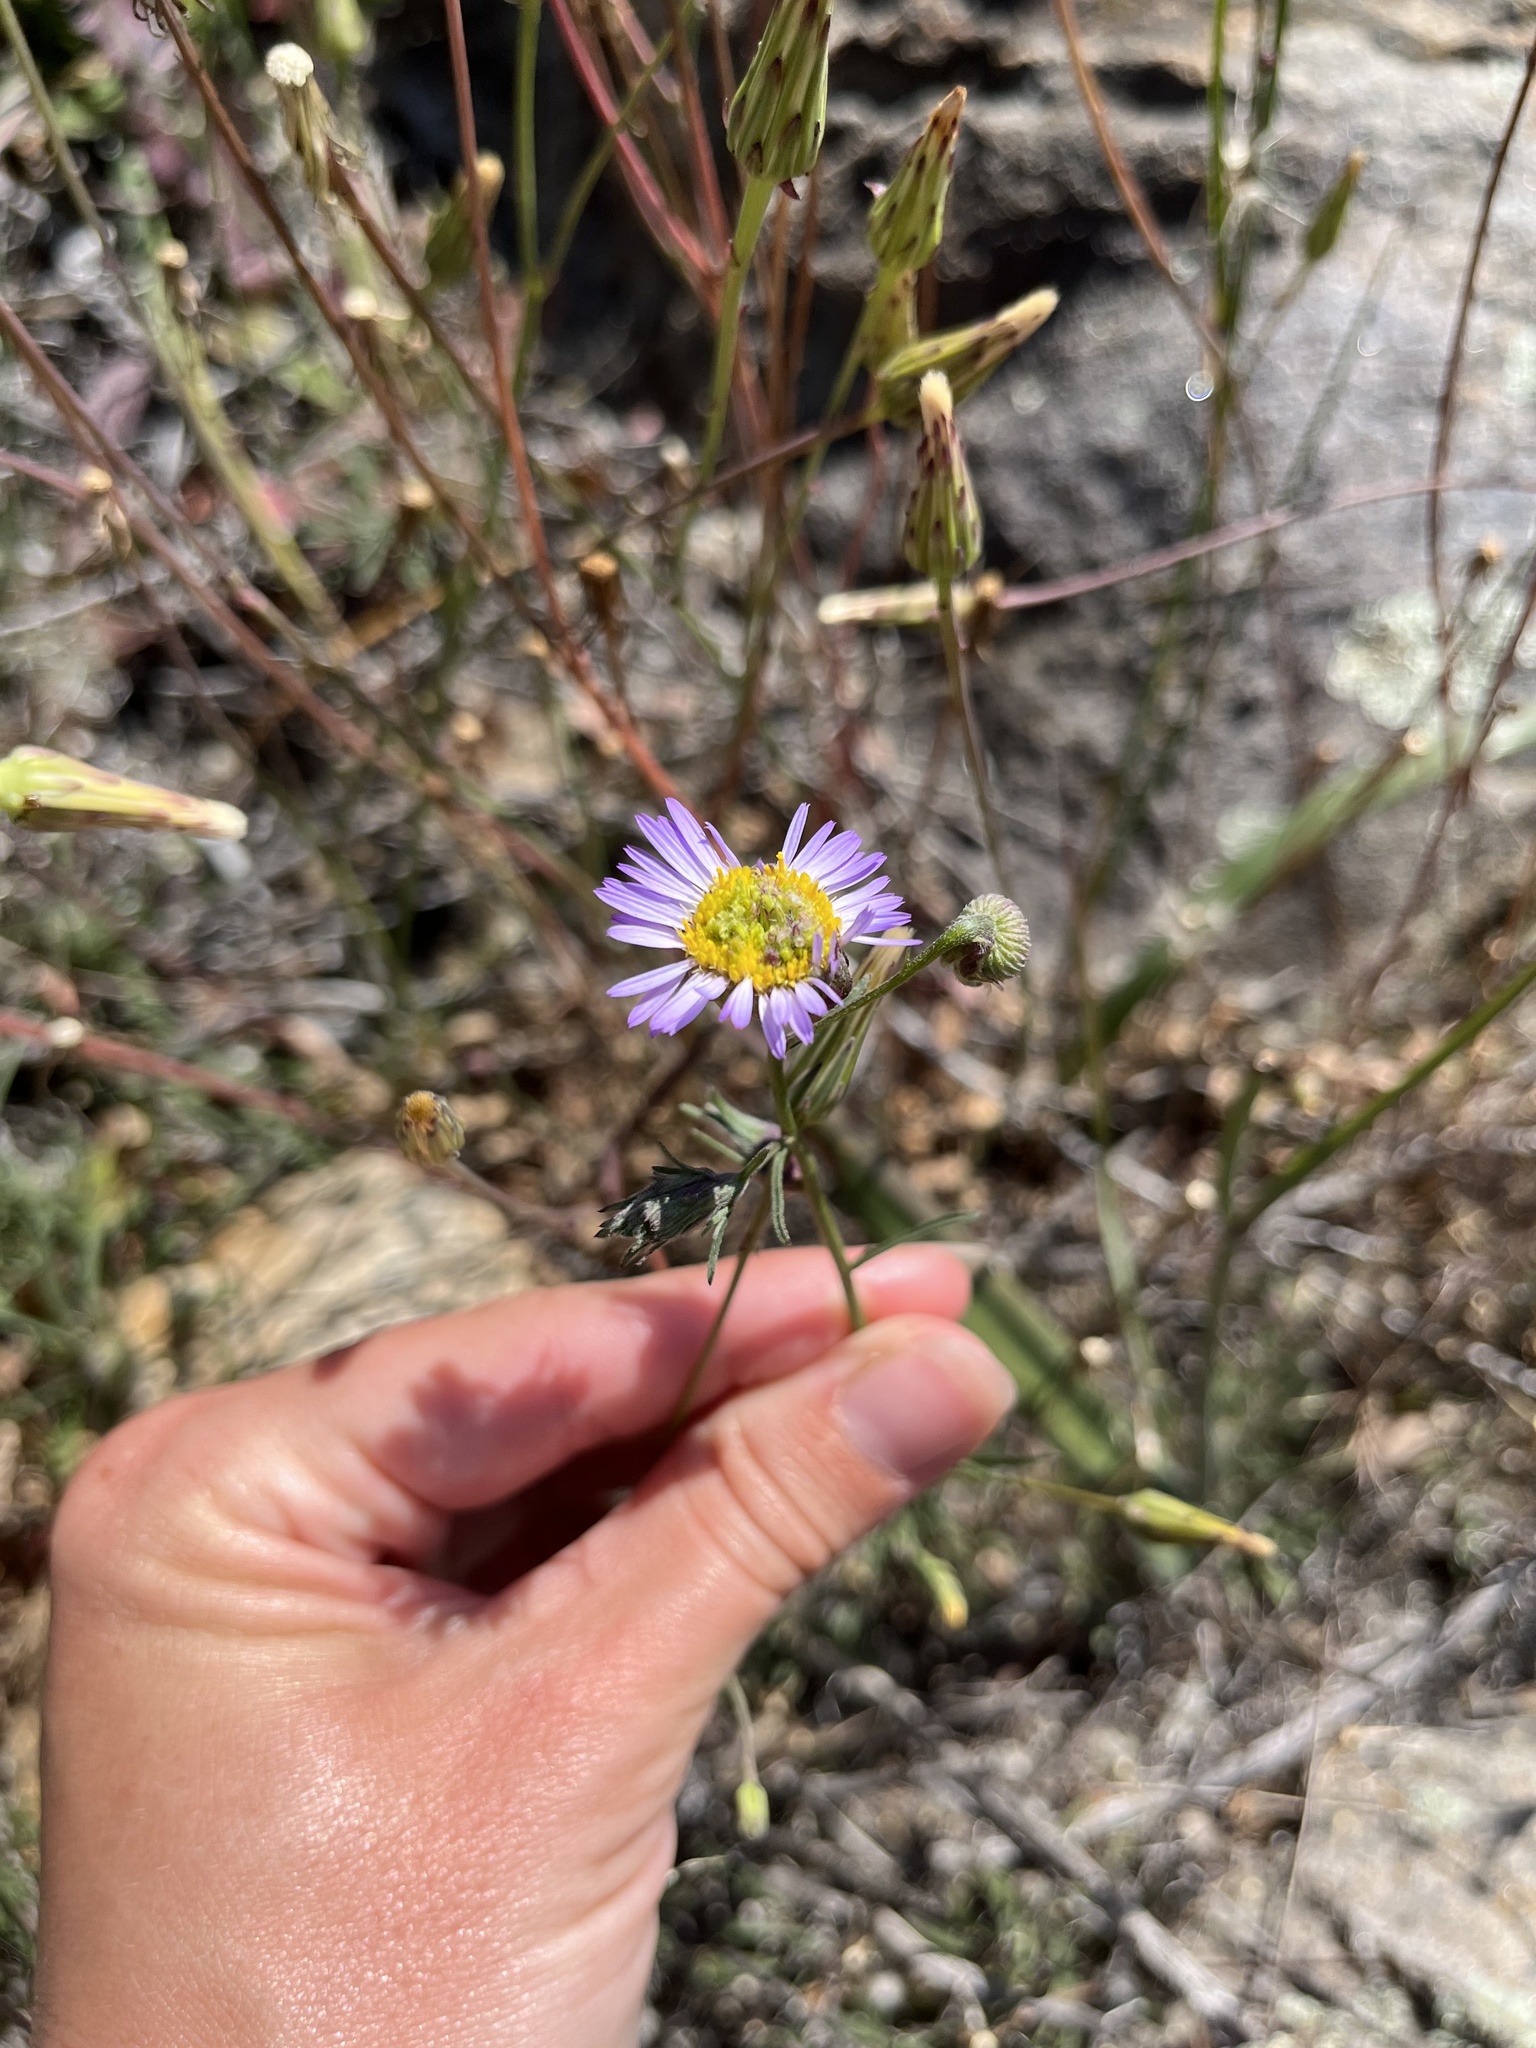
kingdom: Plantae
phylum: Tracheophyta
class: Magnoliopsida
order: Asterales
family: Asteraceae
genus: Erigeron
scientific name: Erigeron foliosus
